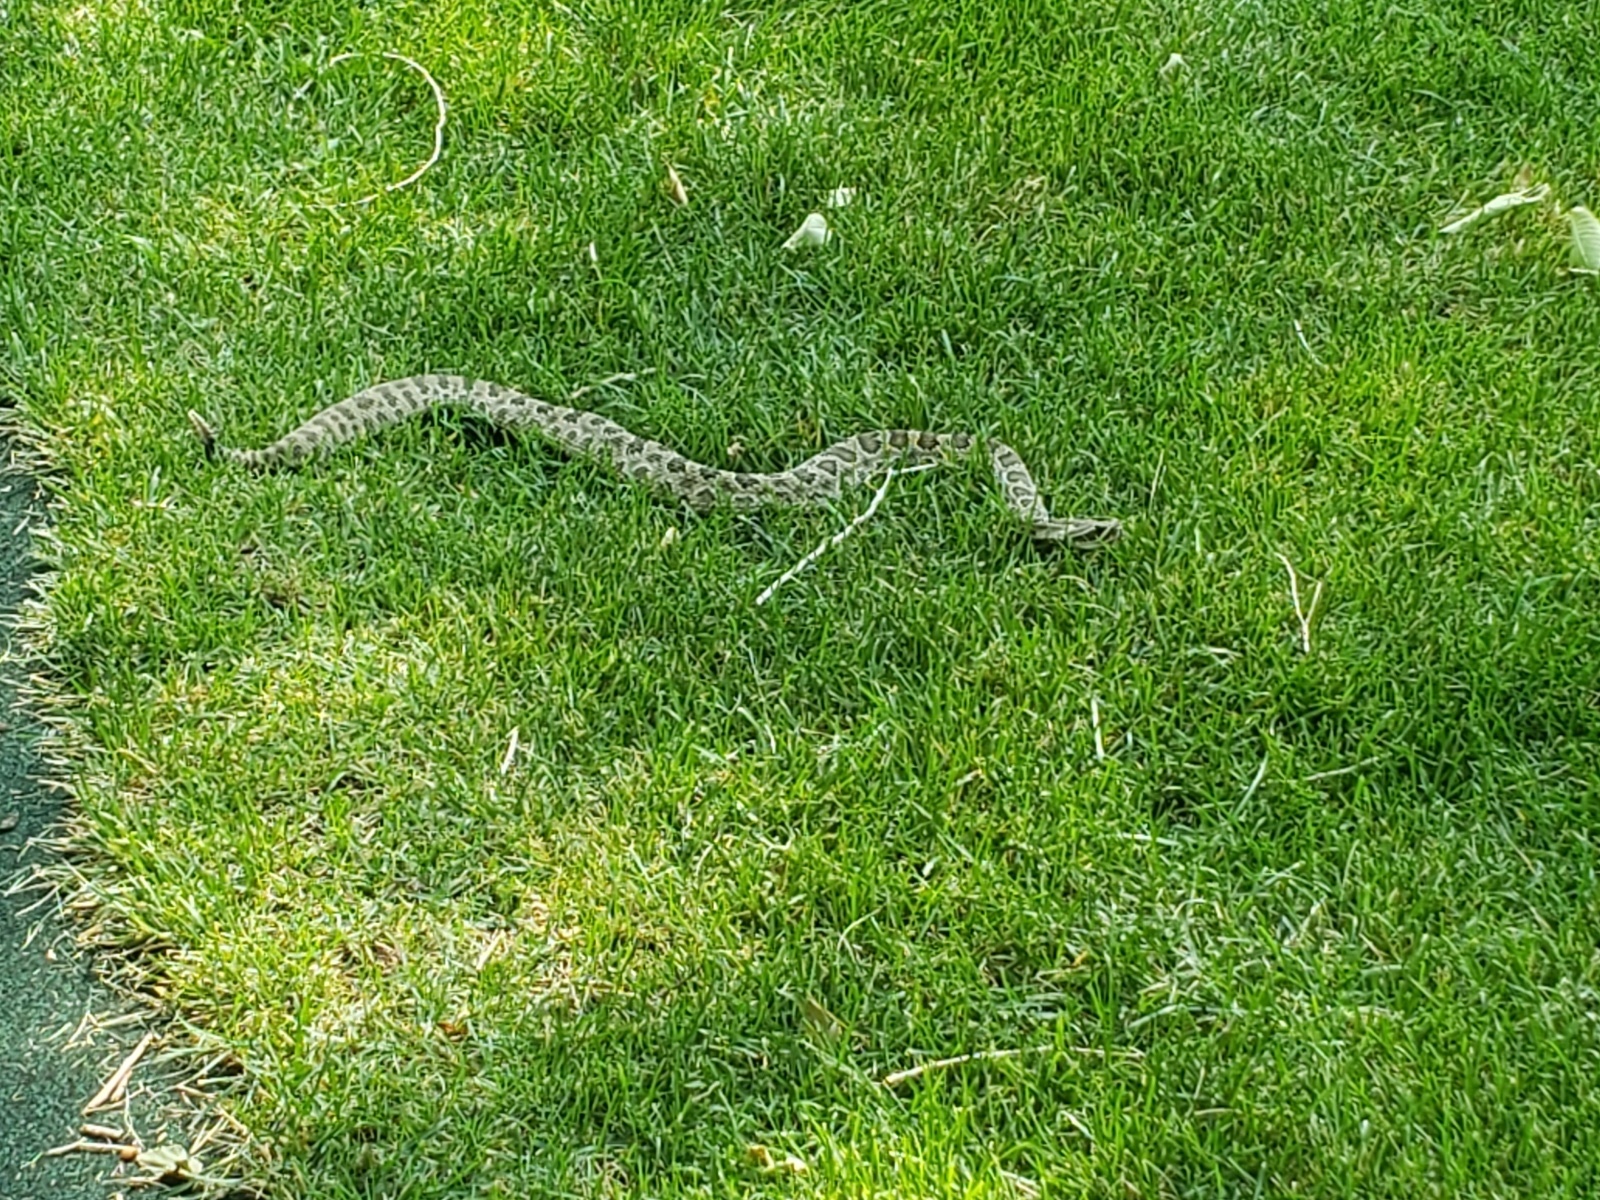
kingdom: Animalia
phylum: Chordata
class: Squamata
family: Viperidae
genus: Crotalus
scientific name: Crotalus viridis
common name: Prairie rattlesnake
